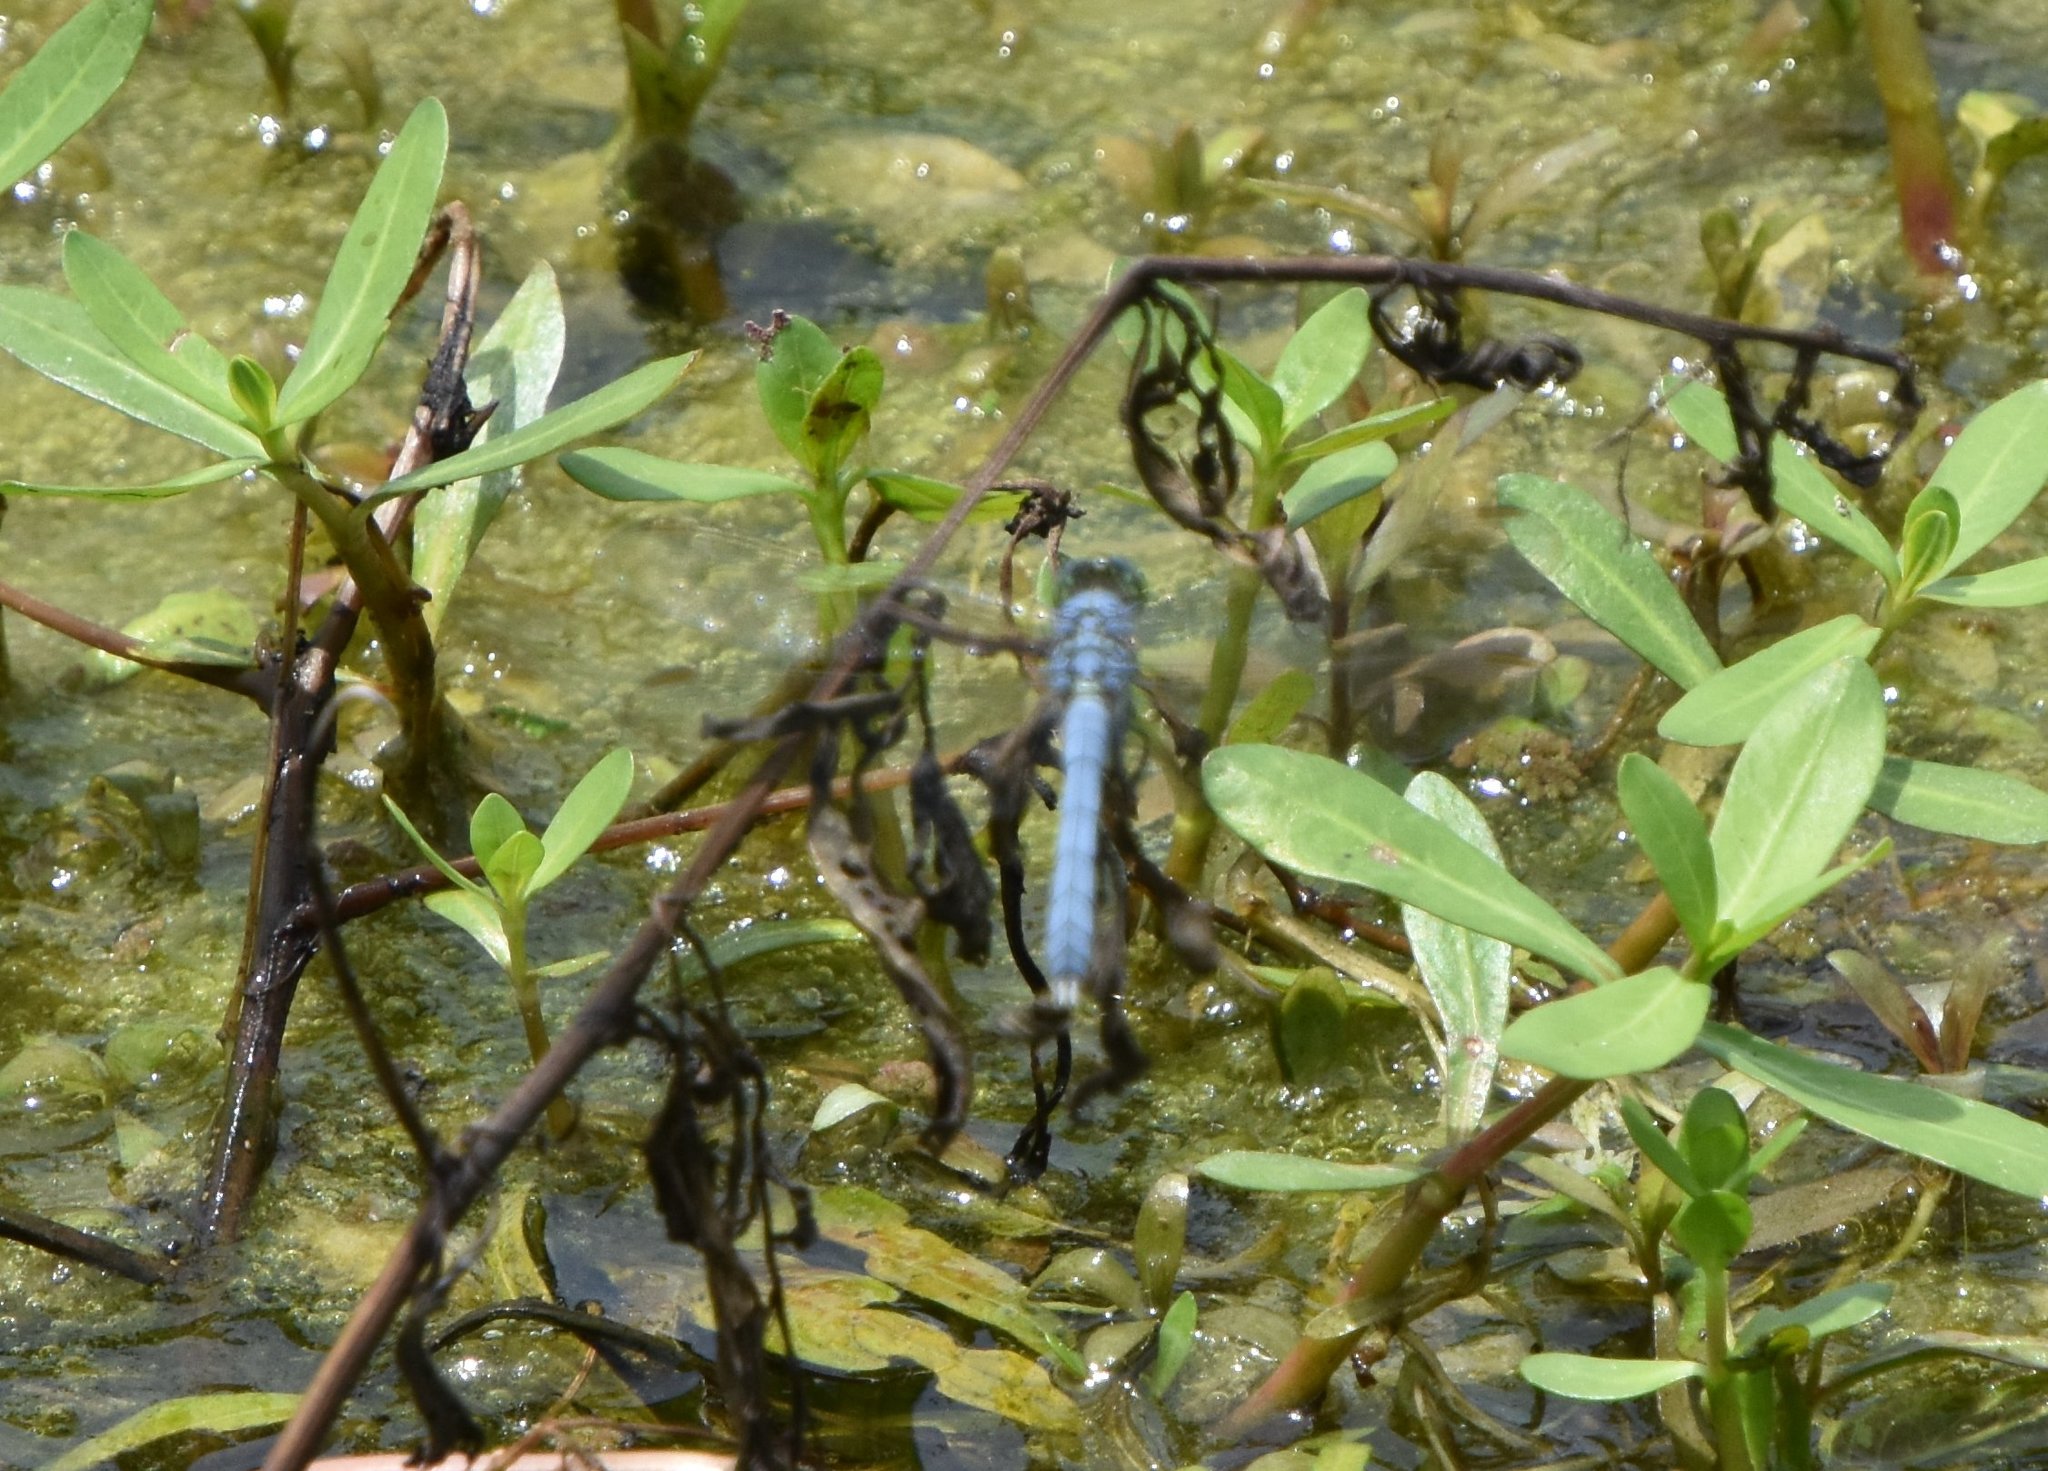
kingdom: Animalia
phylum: Arthropoda
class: Insecta
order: Odonata
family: Libellulidae
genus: Erythemis
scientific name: Erythemis simplicicollis
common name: Eastern pondhawk
